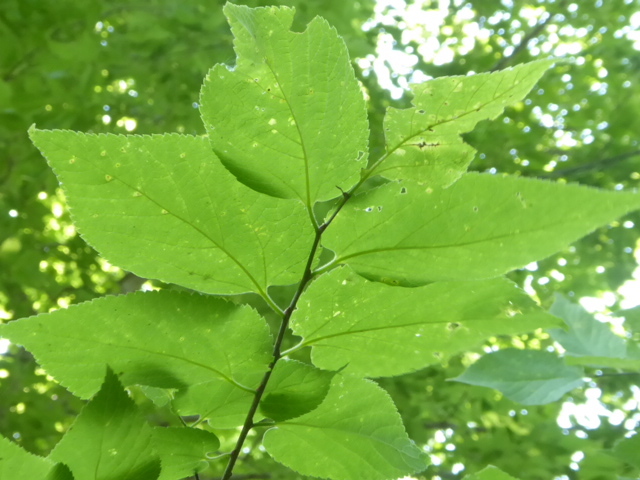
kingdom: Plantae
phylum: Tracheophyta
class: Magnoliopsida
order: Rosales
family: Cannabaceae
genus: Celtis
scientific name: Celtis occidentalis
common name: Common hackberry
